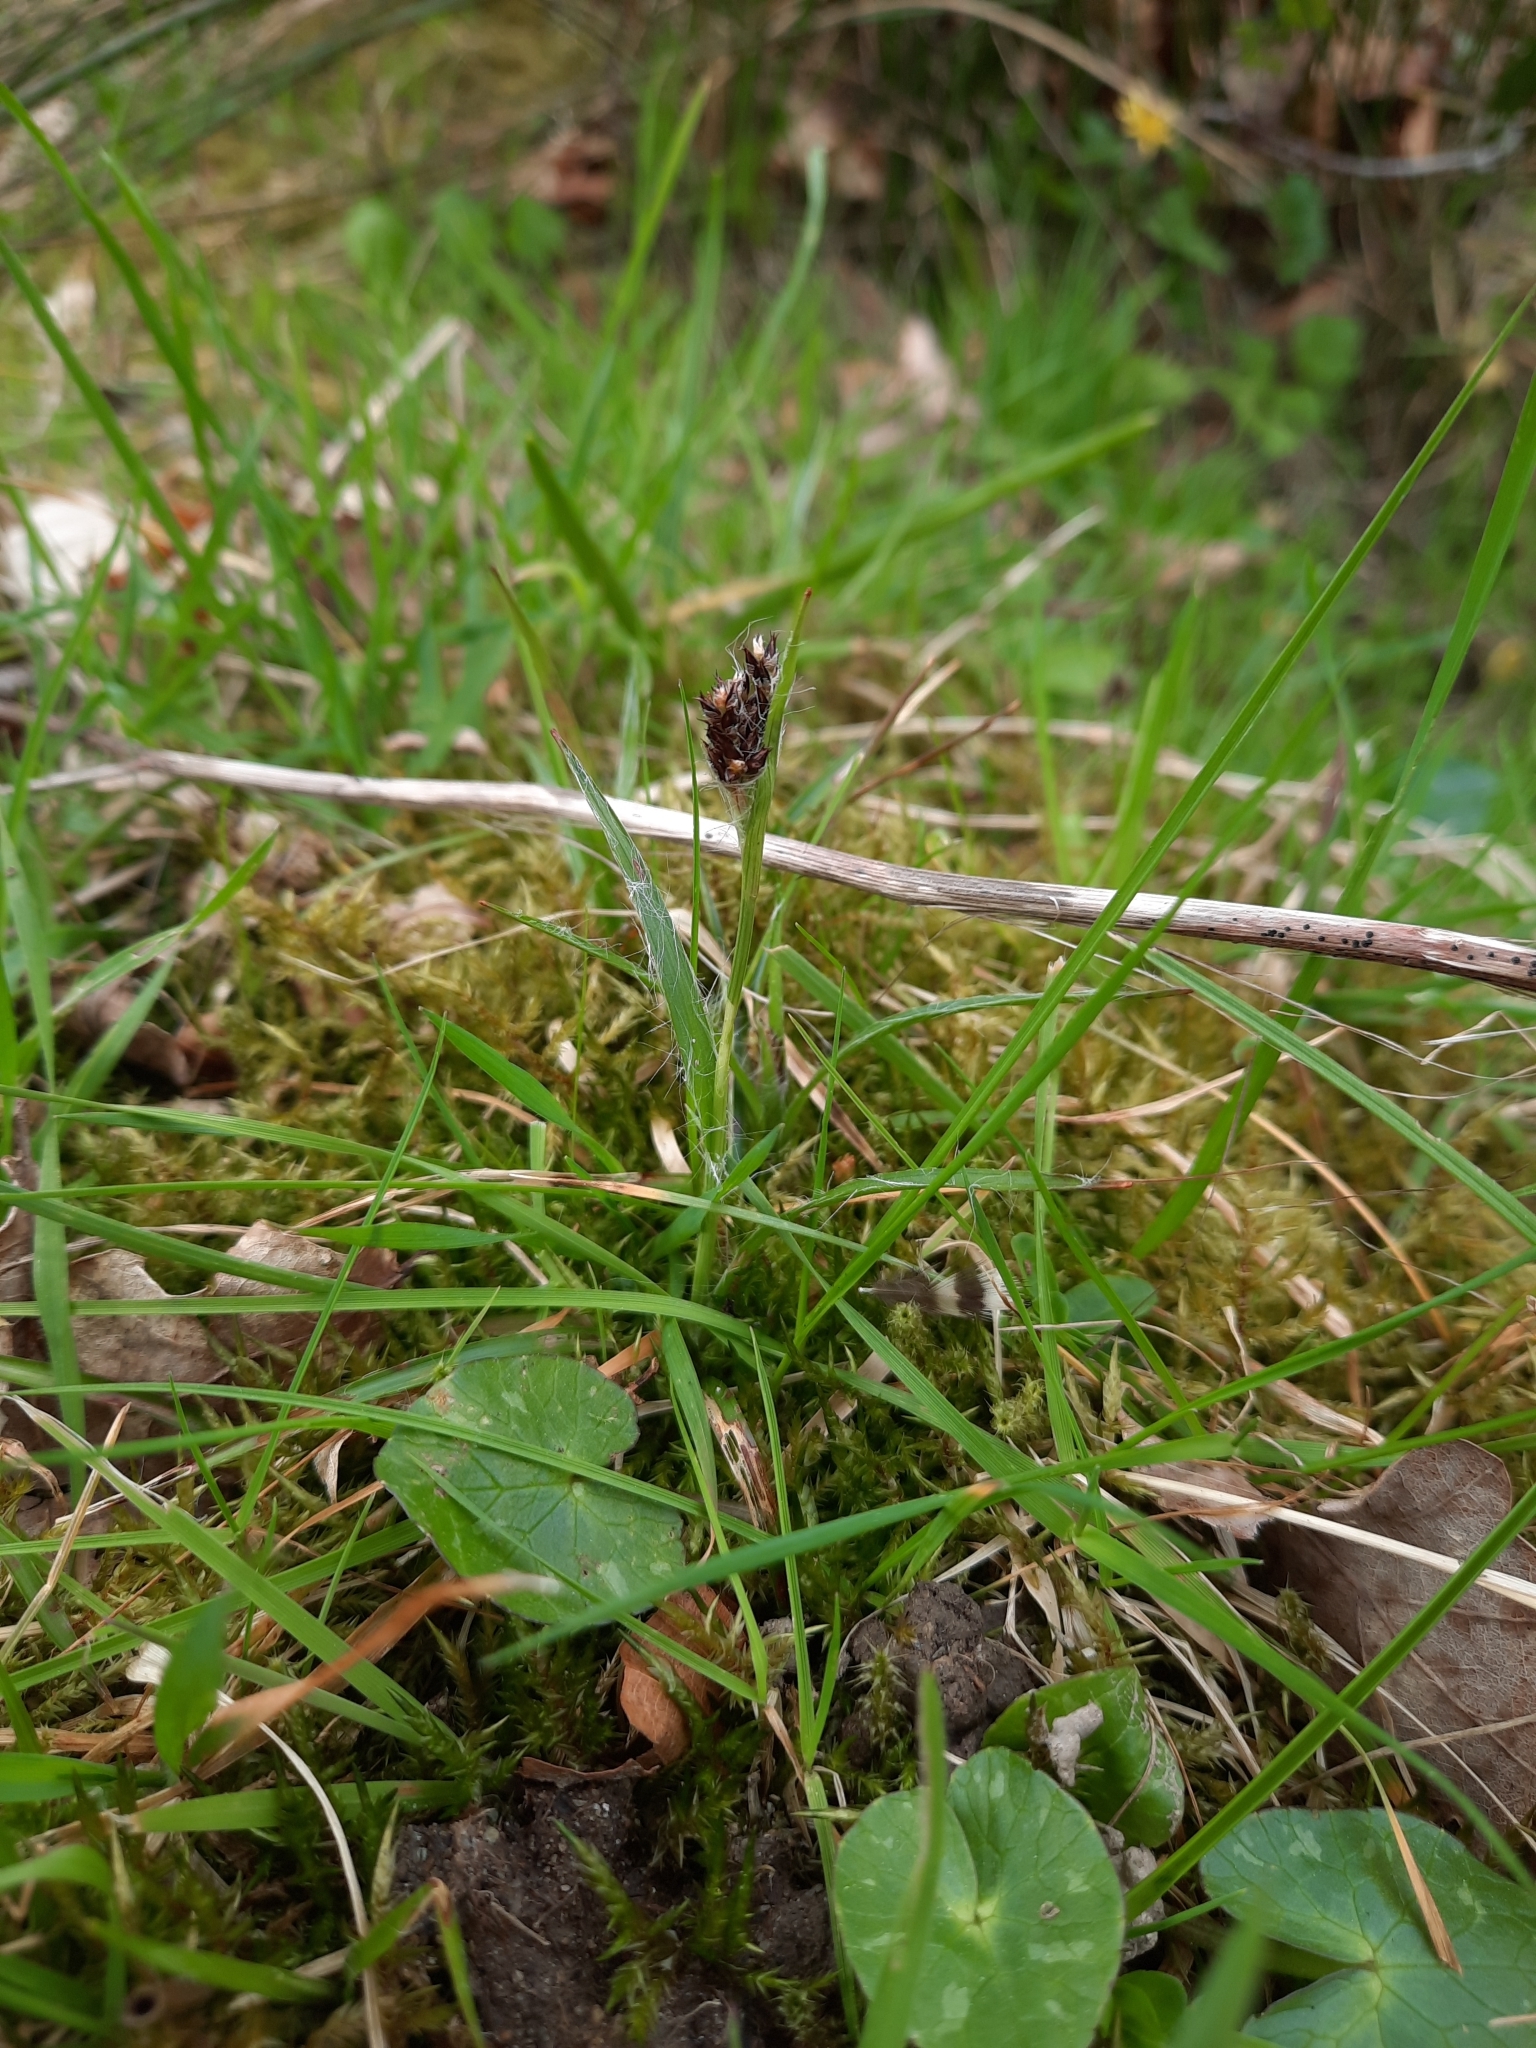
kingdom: Plantae
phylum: Tracheophyta
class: Liliopsida
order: Poales
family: Juncaceae
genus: Luzula
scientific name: Luzula campestris
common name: Field wood-rush
